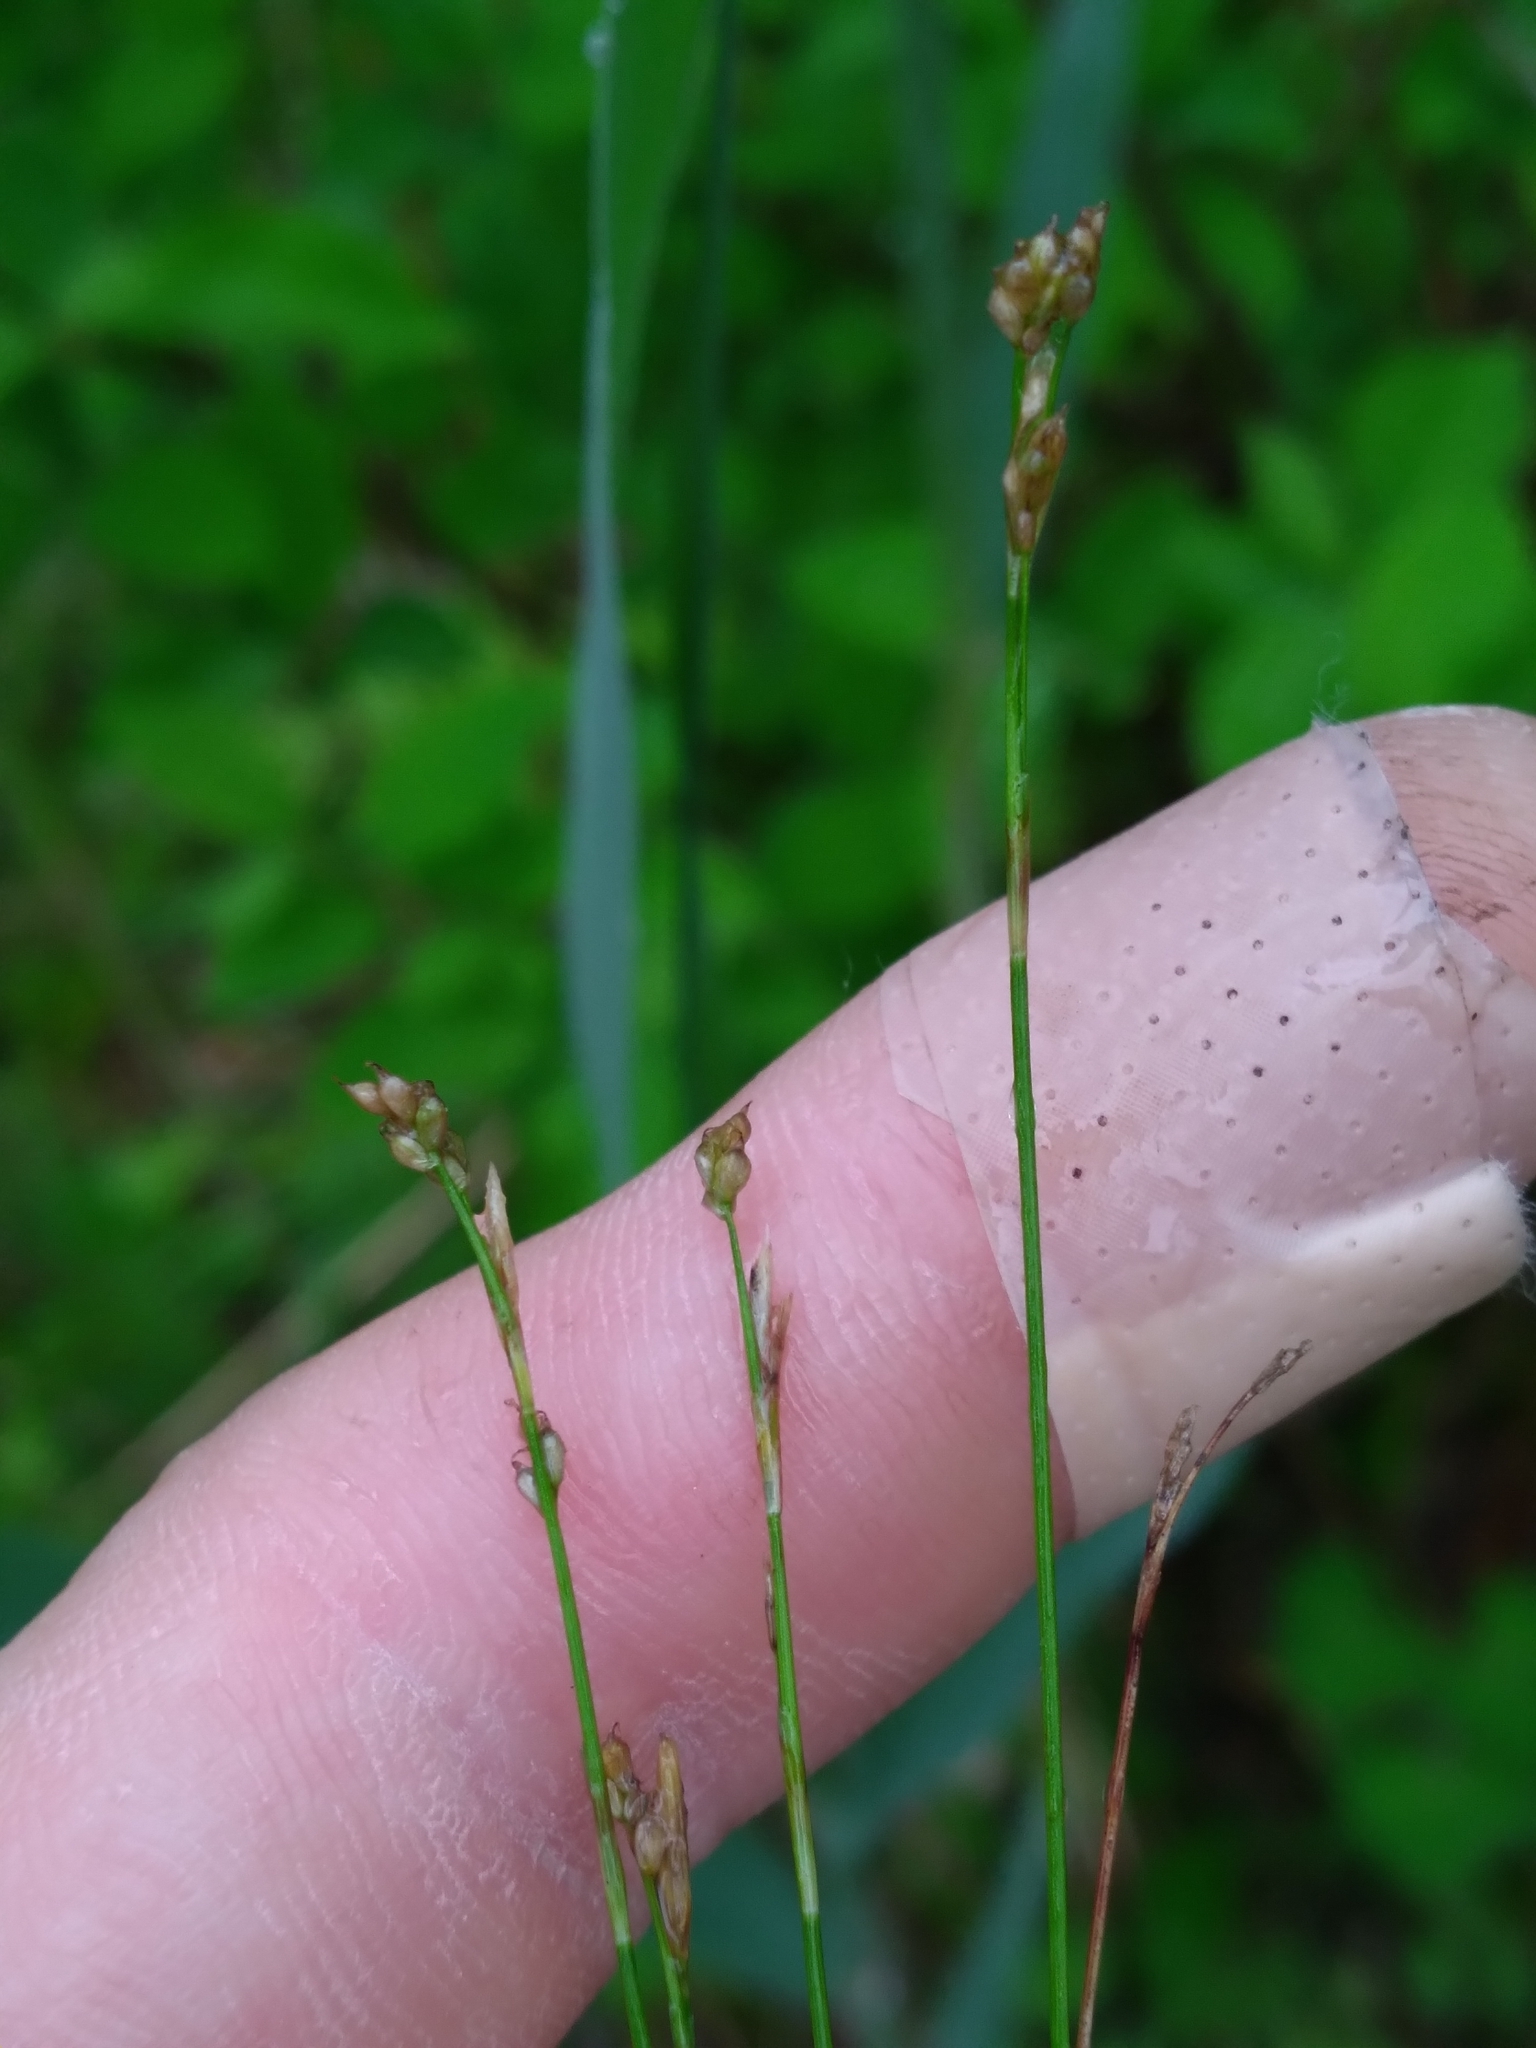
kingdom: Plantae
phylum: Tracheophyta
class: Liliopsida
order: Poales
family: Cyperaceae
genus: Carex
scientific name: Carex eburnea
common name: Bristle-leaved sedge
